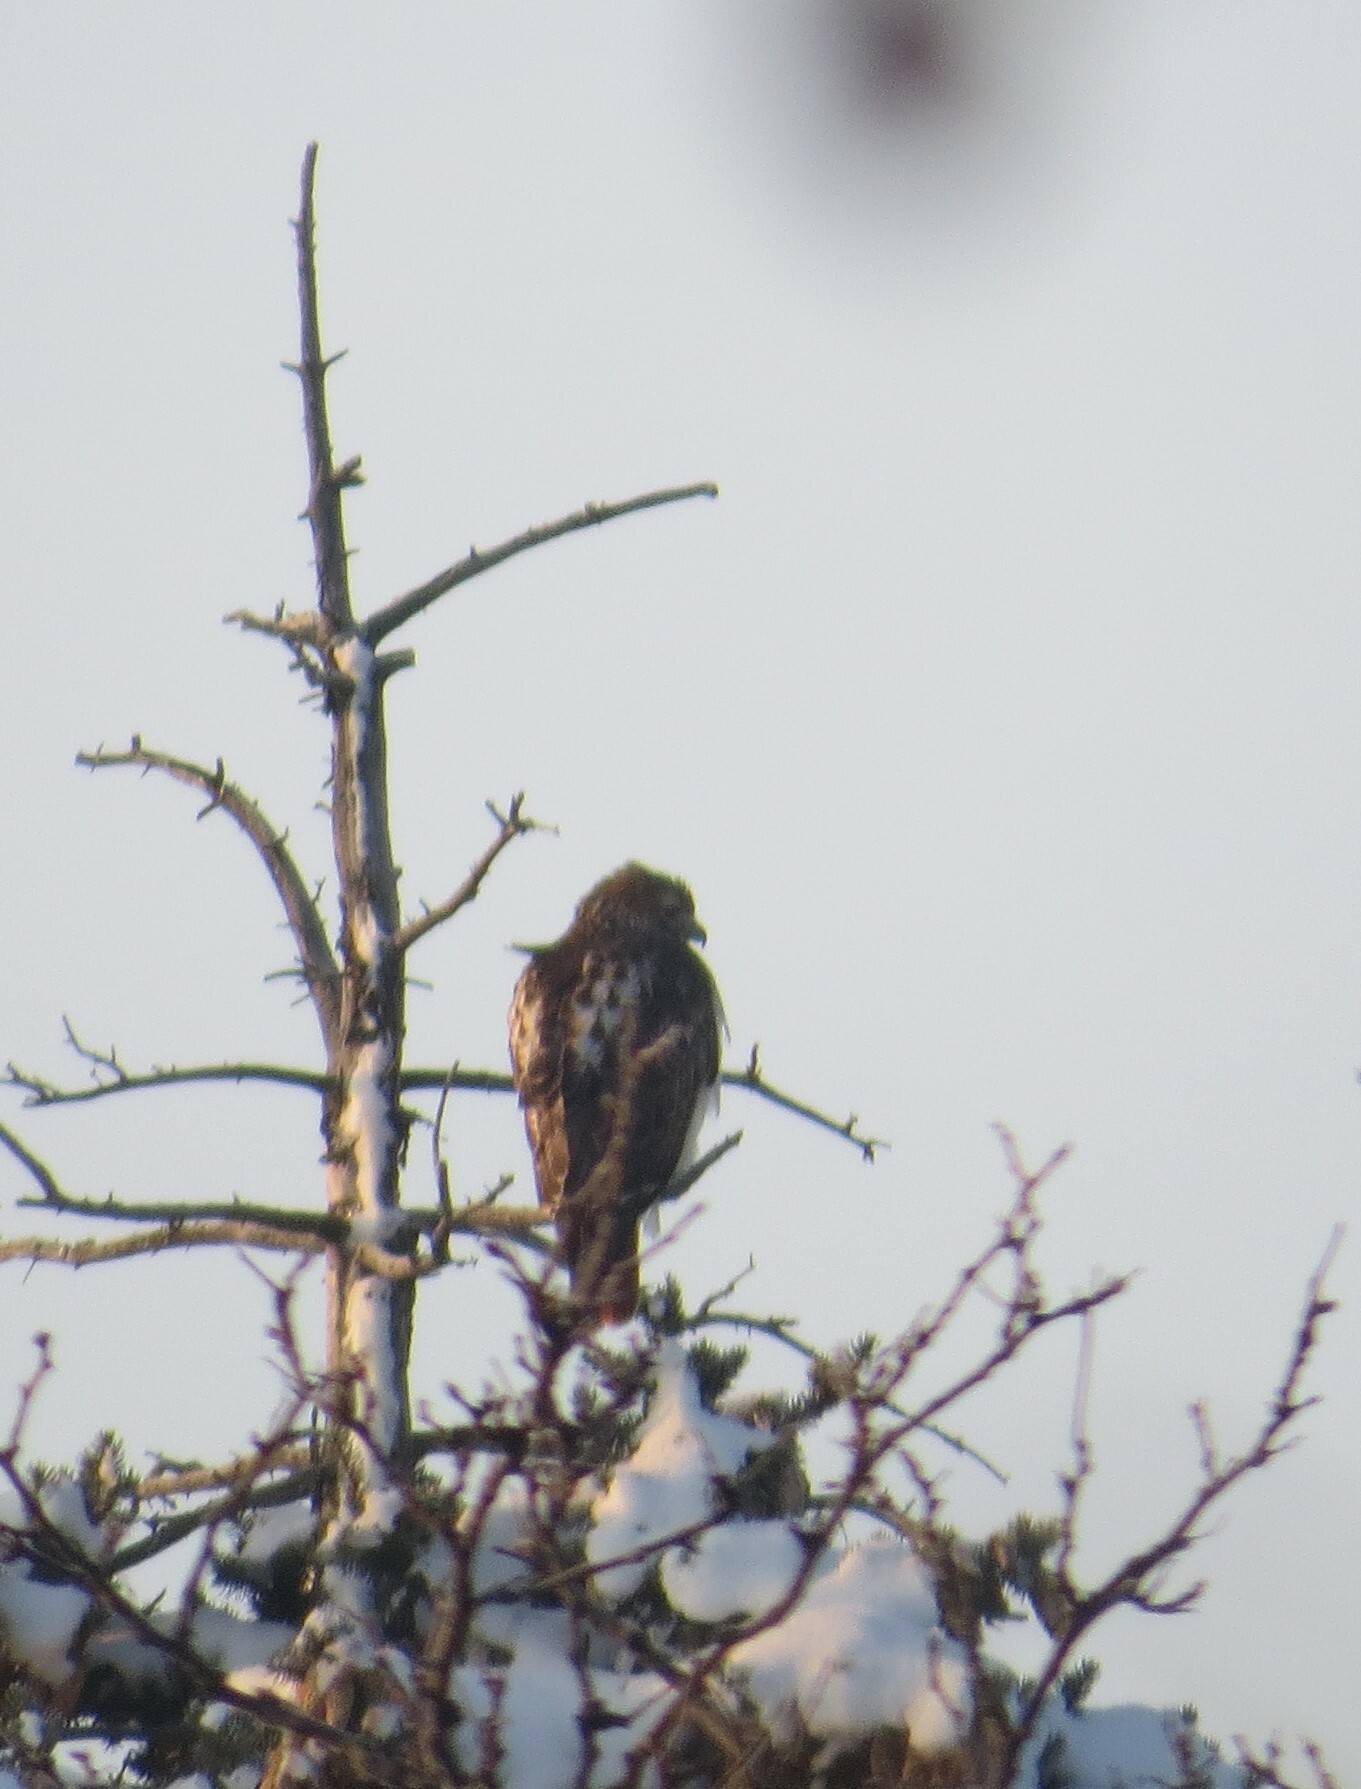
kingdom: Animalia
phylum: Chordata
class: Aves
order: Accipitriformes
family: Accipitridae
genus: Buteo
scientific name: Buteo jamaicensis
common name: Red-tailed hawk
